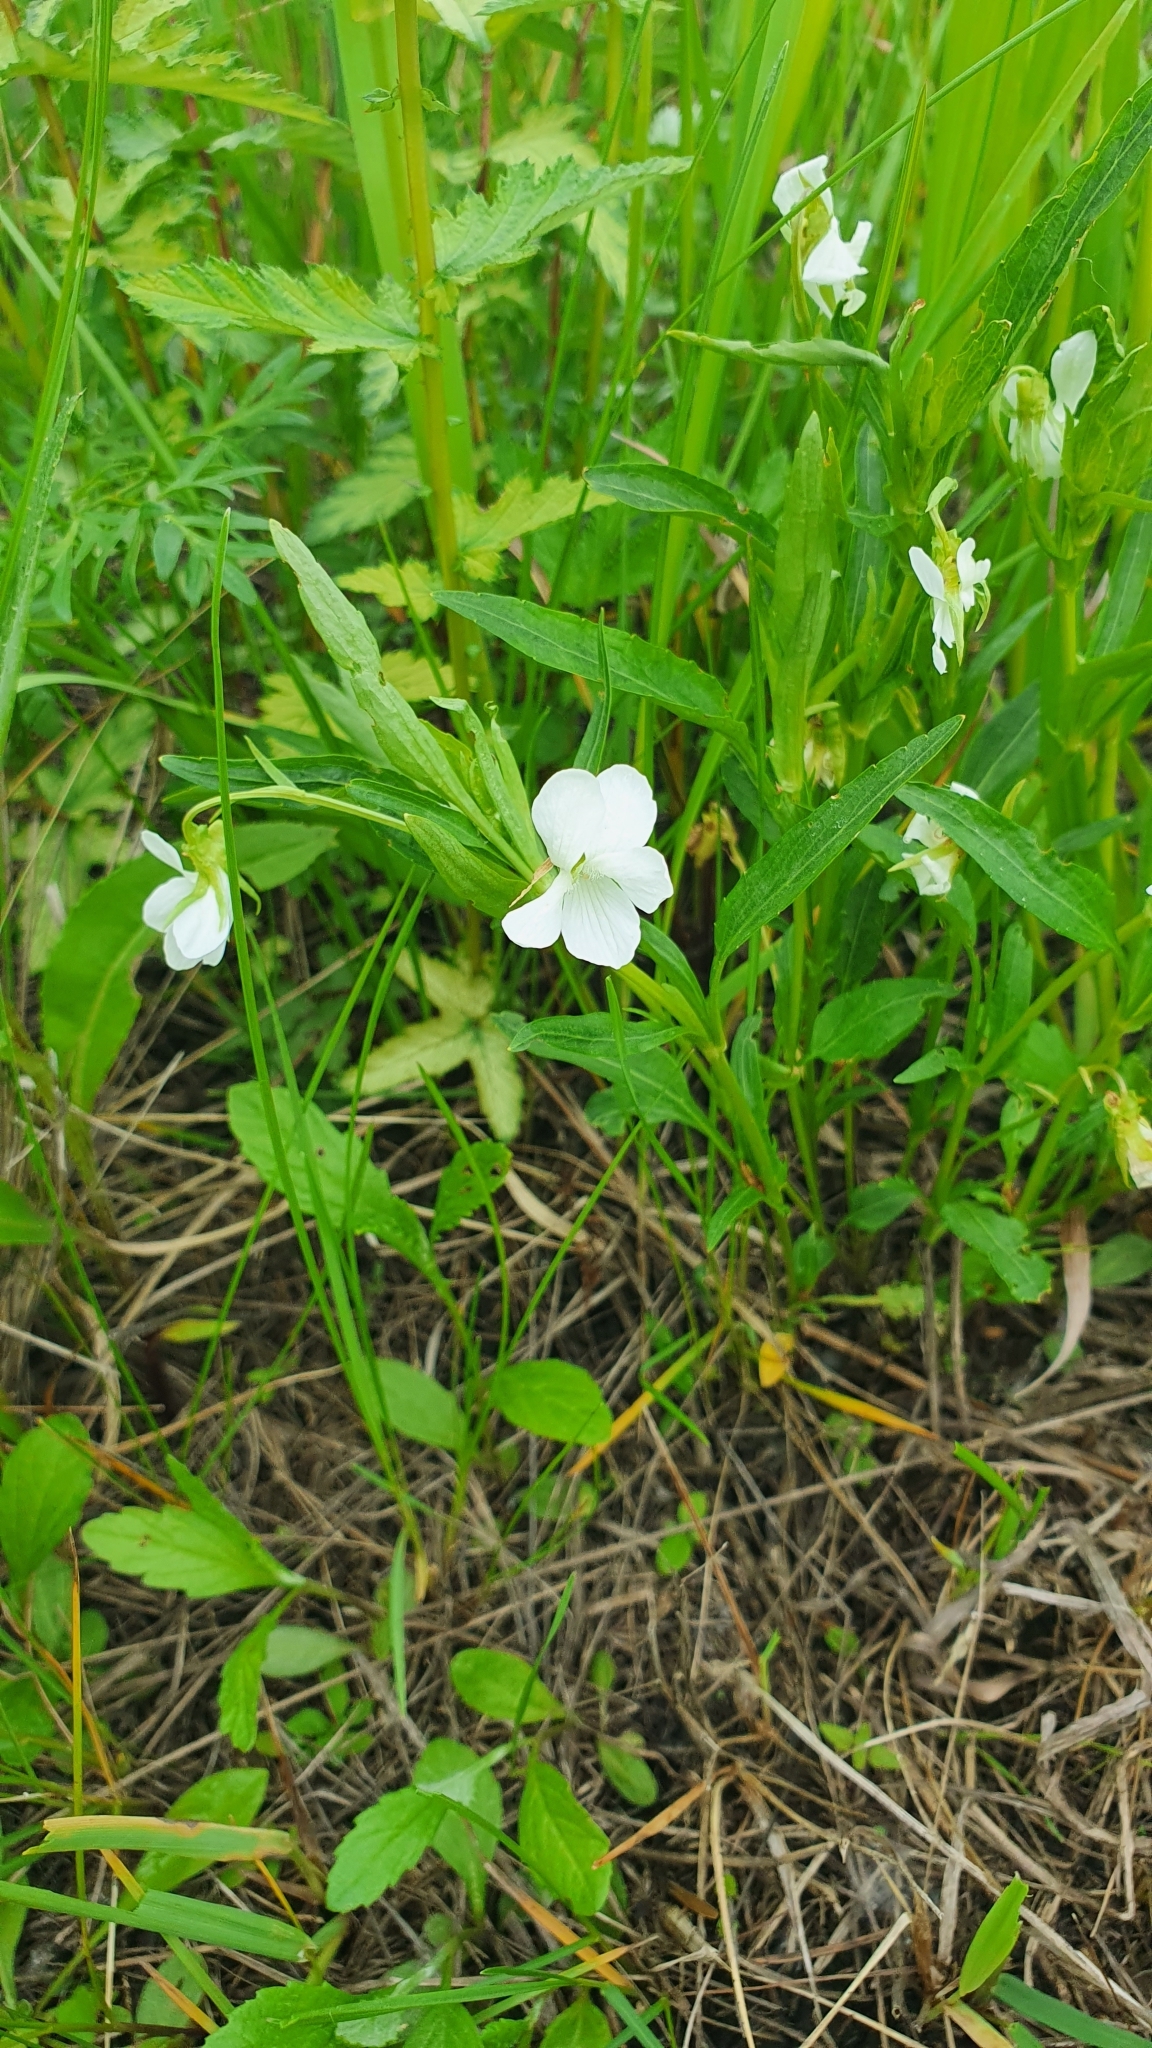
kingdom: Plantae
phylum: Tracheophyta
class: Magnoliopsida
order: Malpighiales
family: Violaceae
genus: Viola
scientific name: Viola pumila
